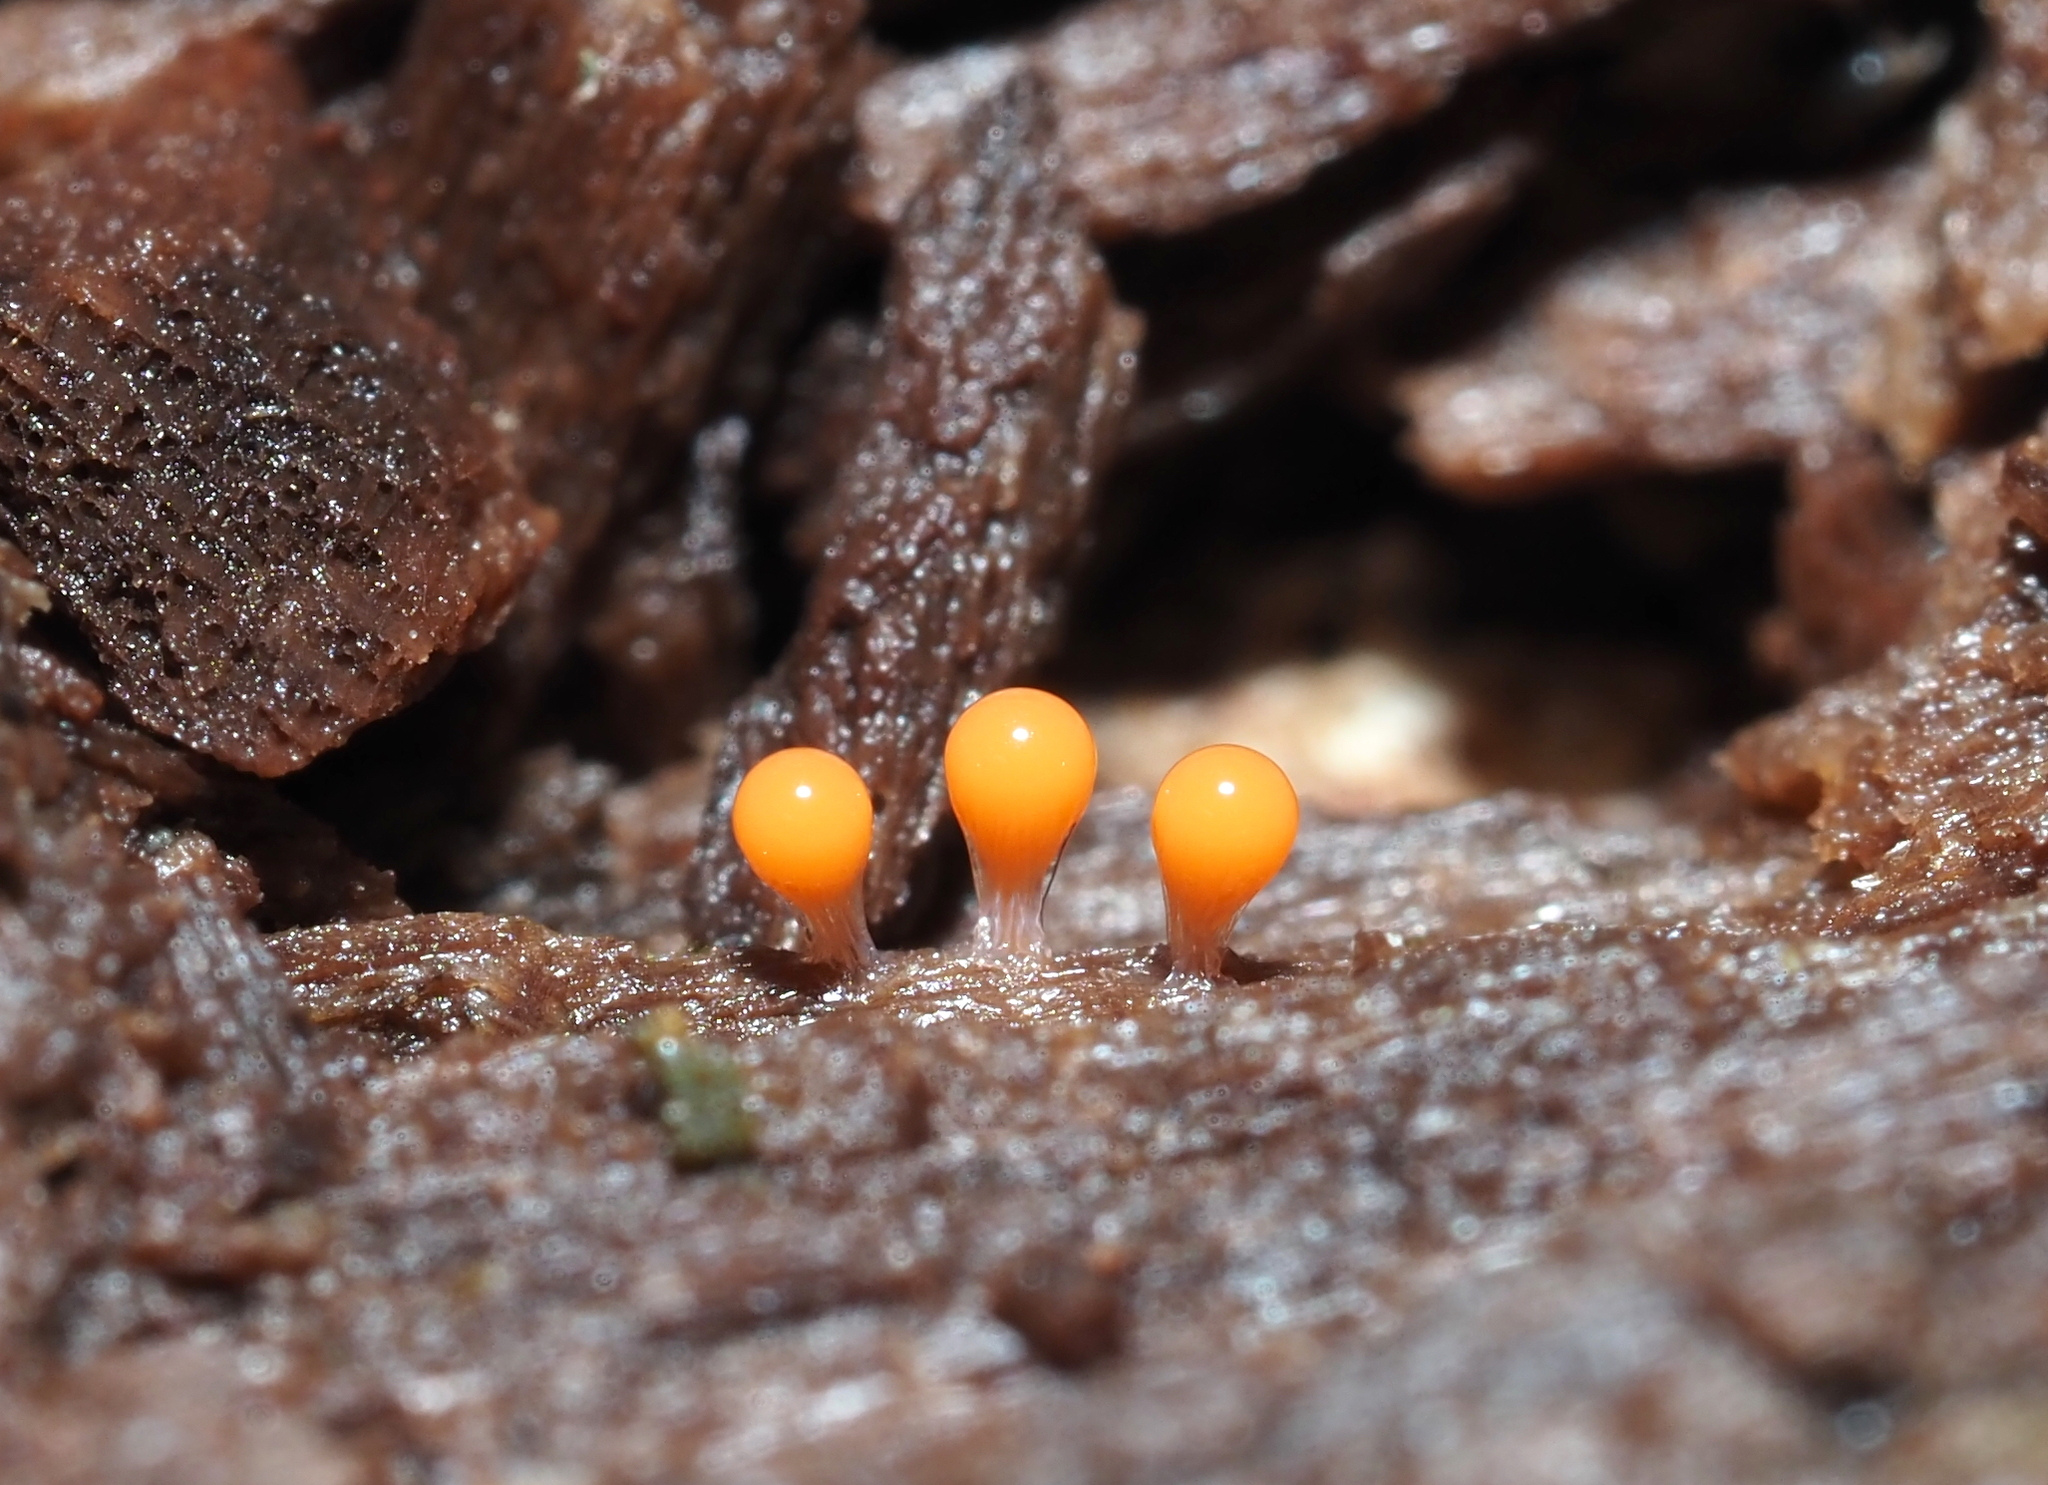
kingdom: Protozoa
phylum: Mycetozoa
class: Myxomycetes
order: Trichiales
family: Arcyriaceae
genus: Hemitrichia
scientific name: Hemitrichia decipiens
